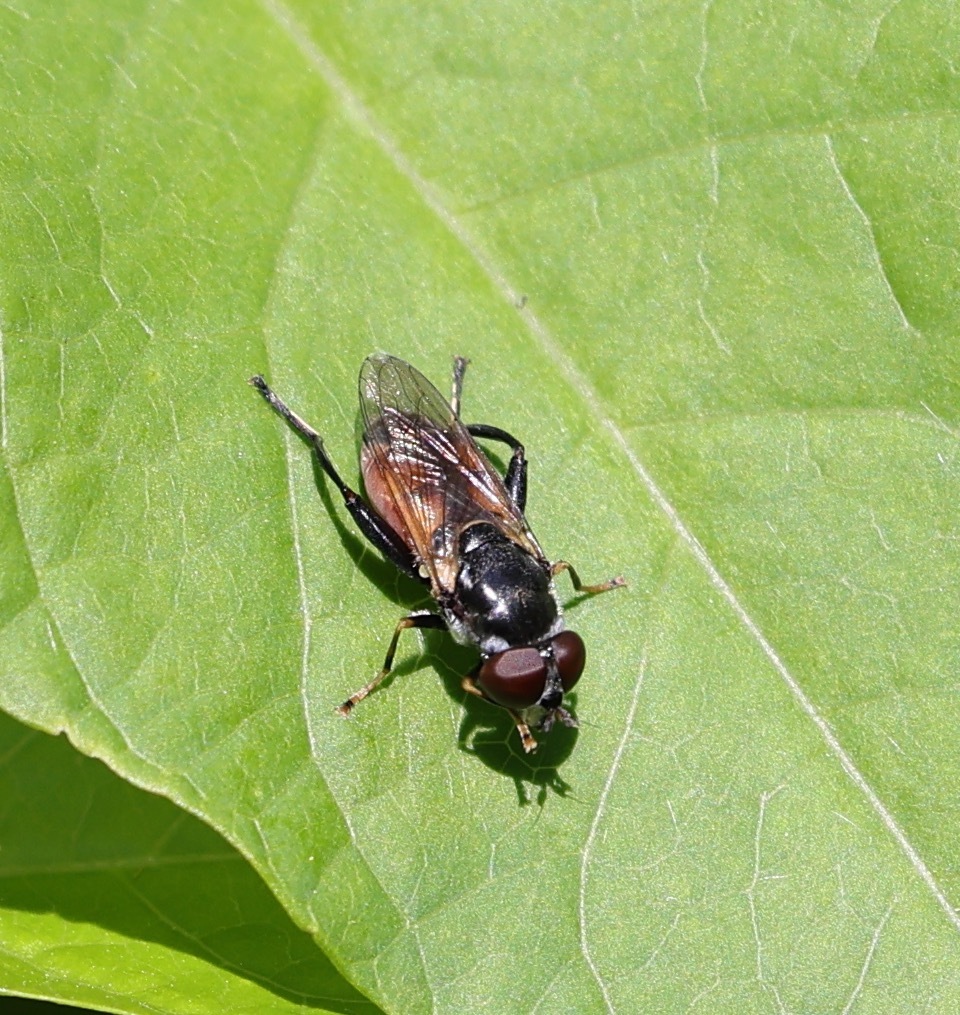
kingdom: Animalia
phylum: Arthropoda
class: Insecta
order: Diptera
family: Syrphidae
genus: Tropidia
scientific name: Tropidia scita
